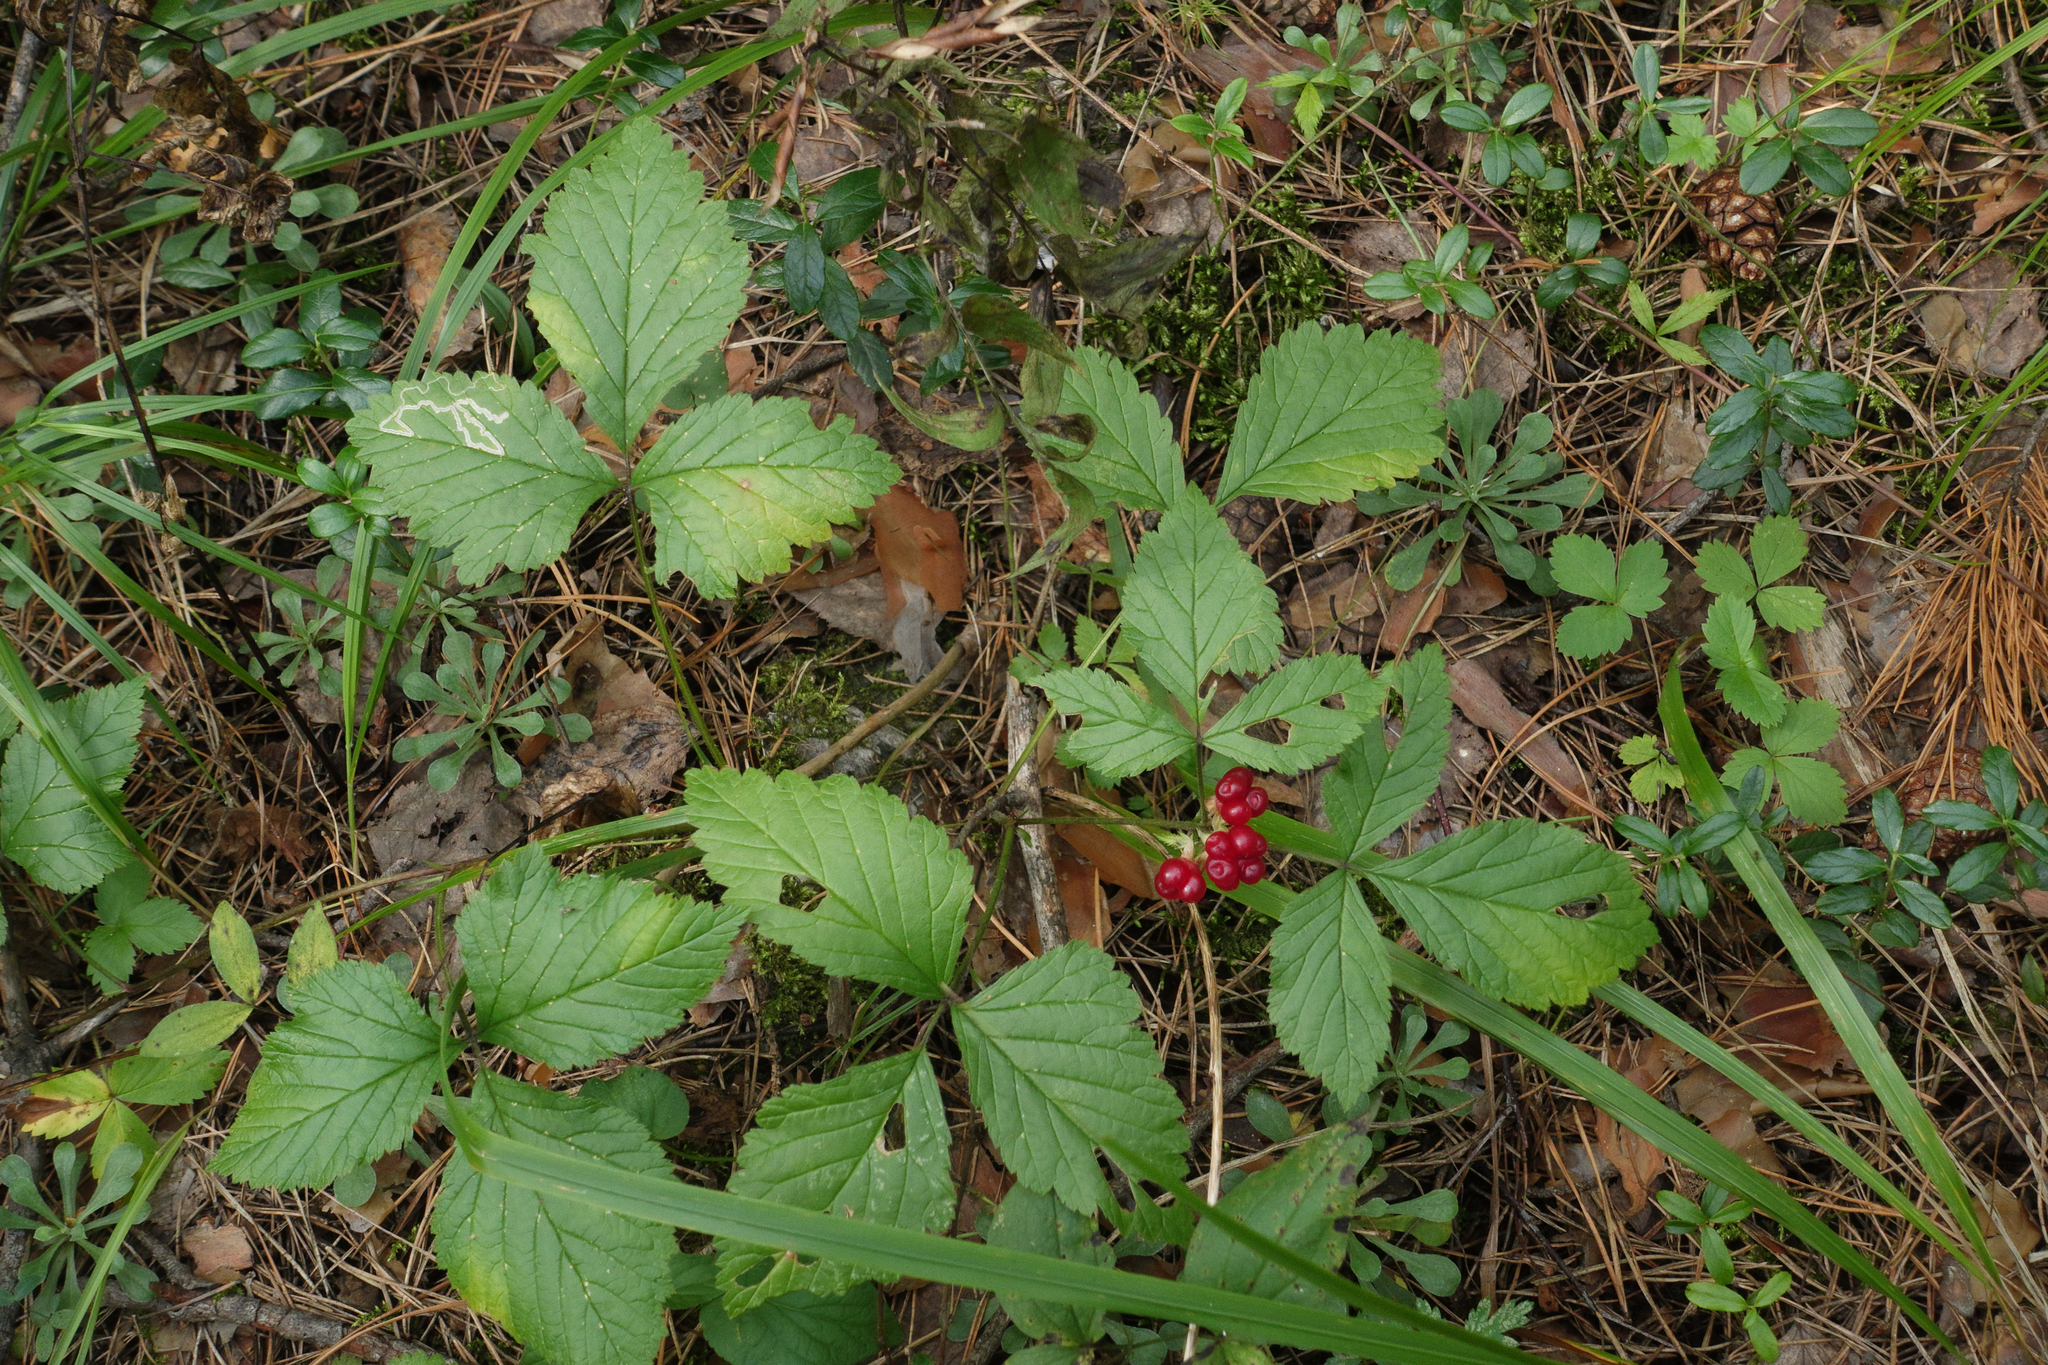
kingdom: Plantae
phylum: Tracheophyta
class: Magnoliopsida
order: Rosales
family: Rosaceae
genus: Rubus
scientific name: Rubus saxatilis
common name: Stone bramble
